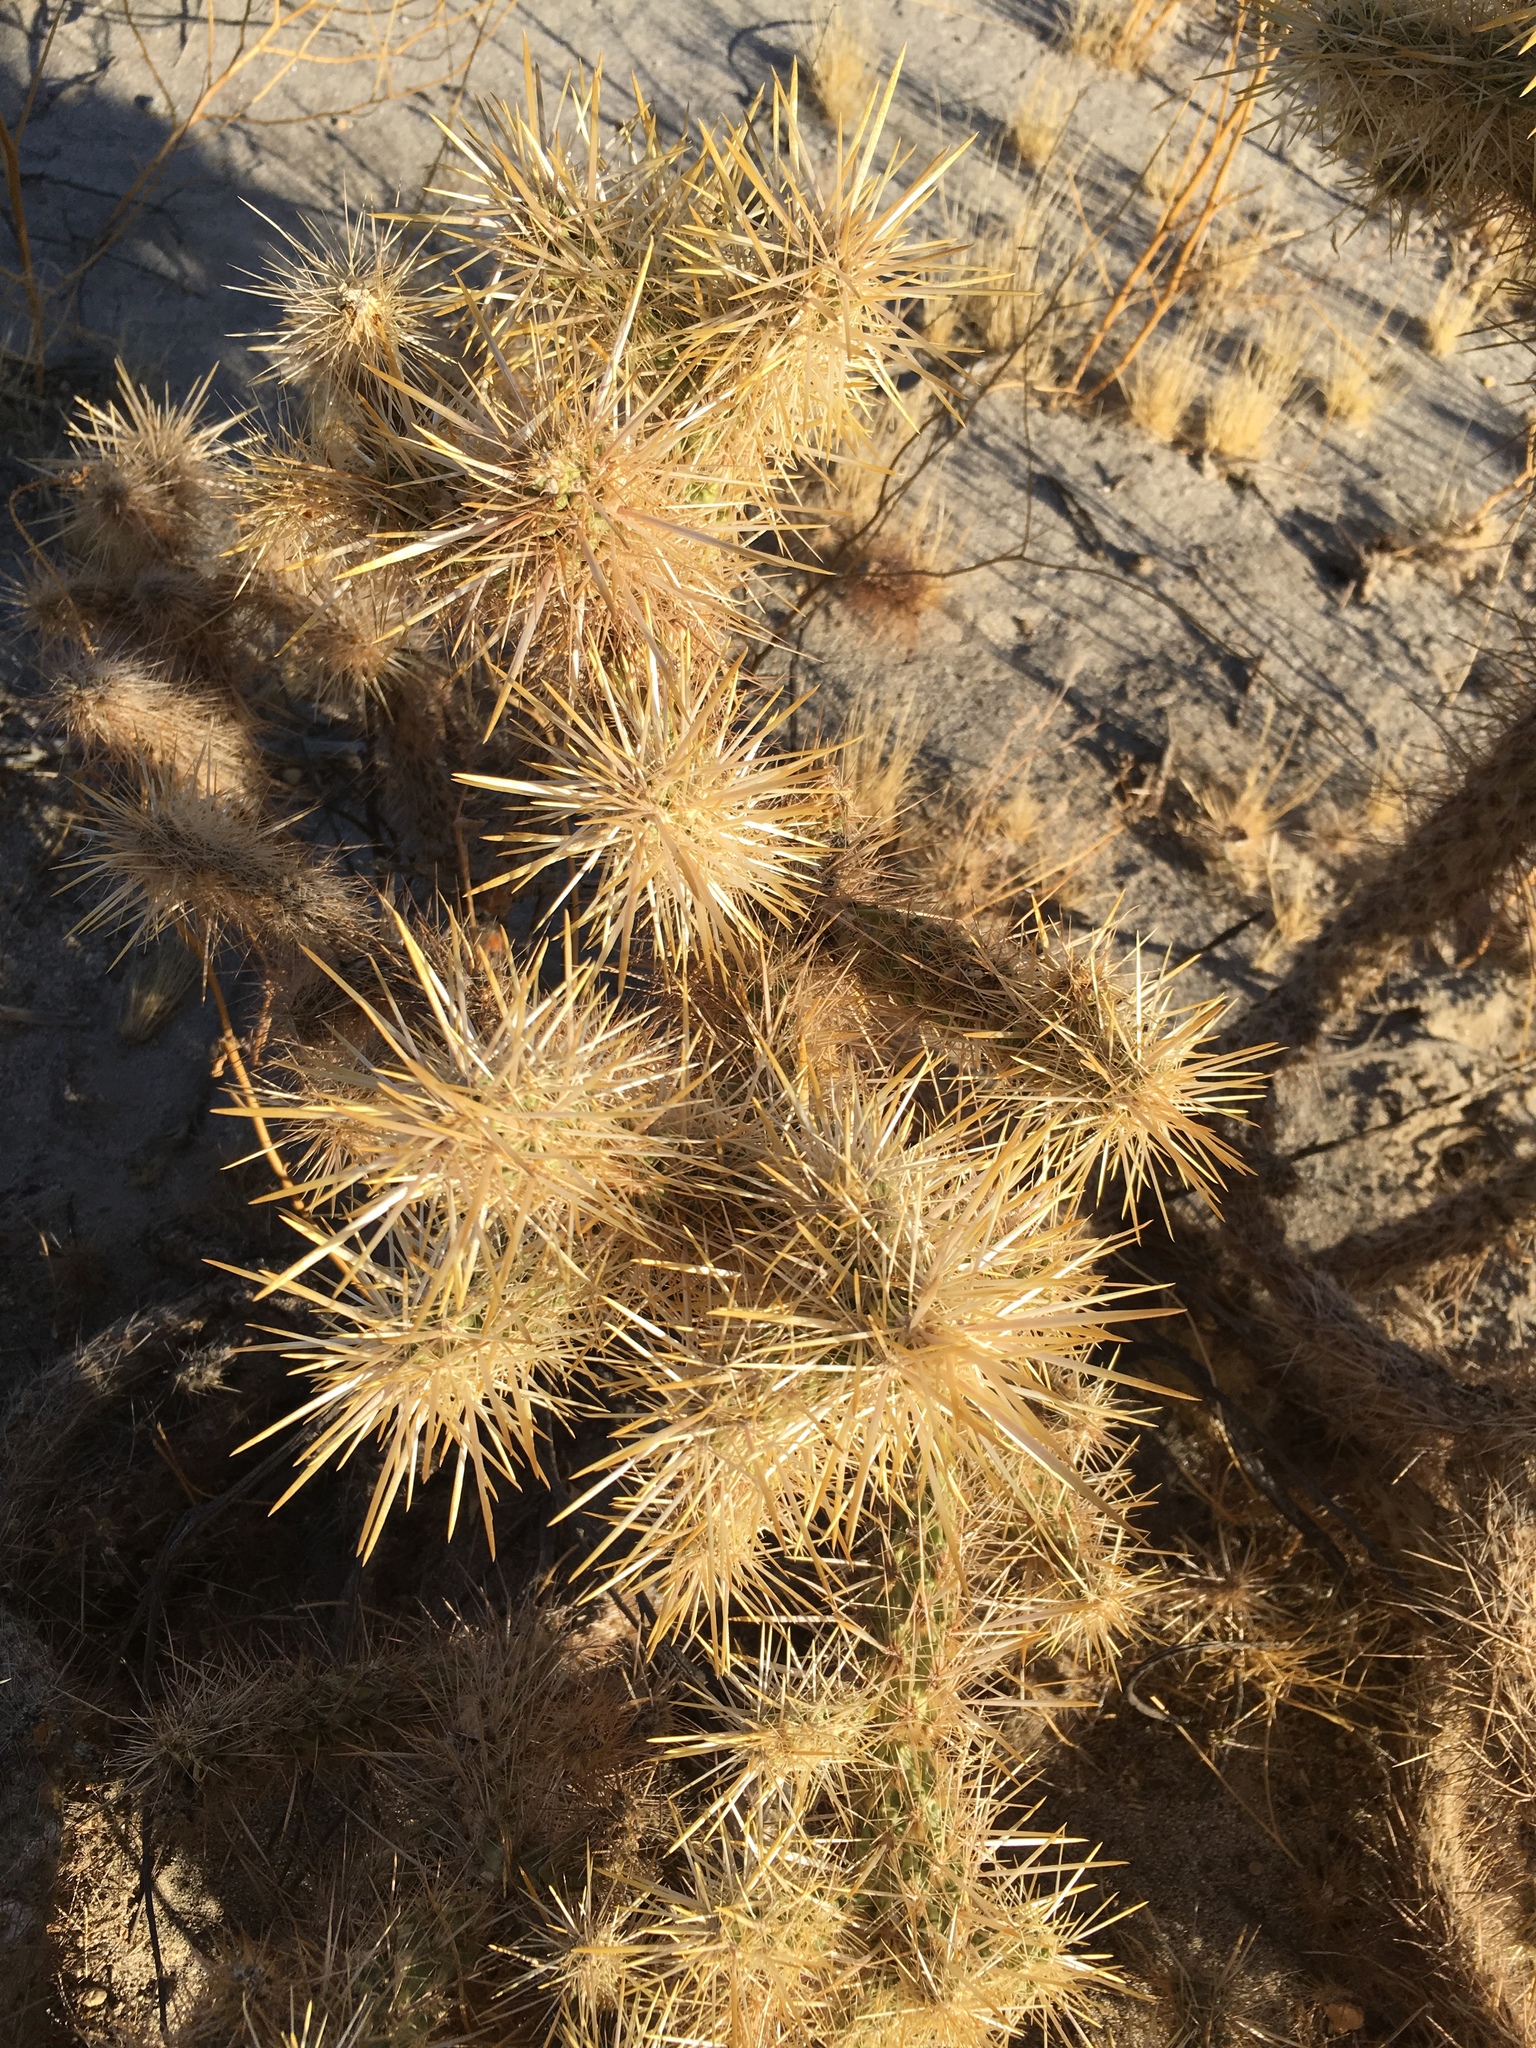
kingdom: Plantae
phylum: Tracheophyta
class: Magnoliopsida
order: Caryophyllales
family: Cactaceae
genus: Cylindropuntia
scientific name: Cylindropuntia echinocarpa
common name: Ground cholla
